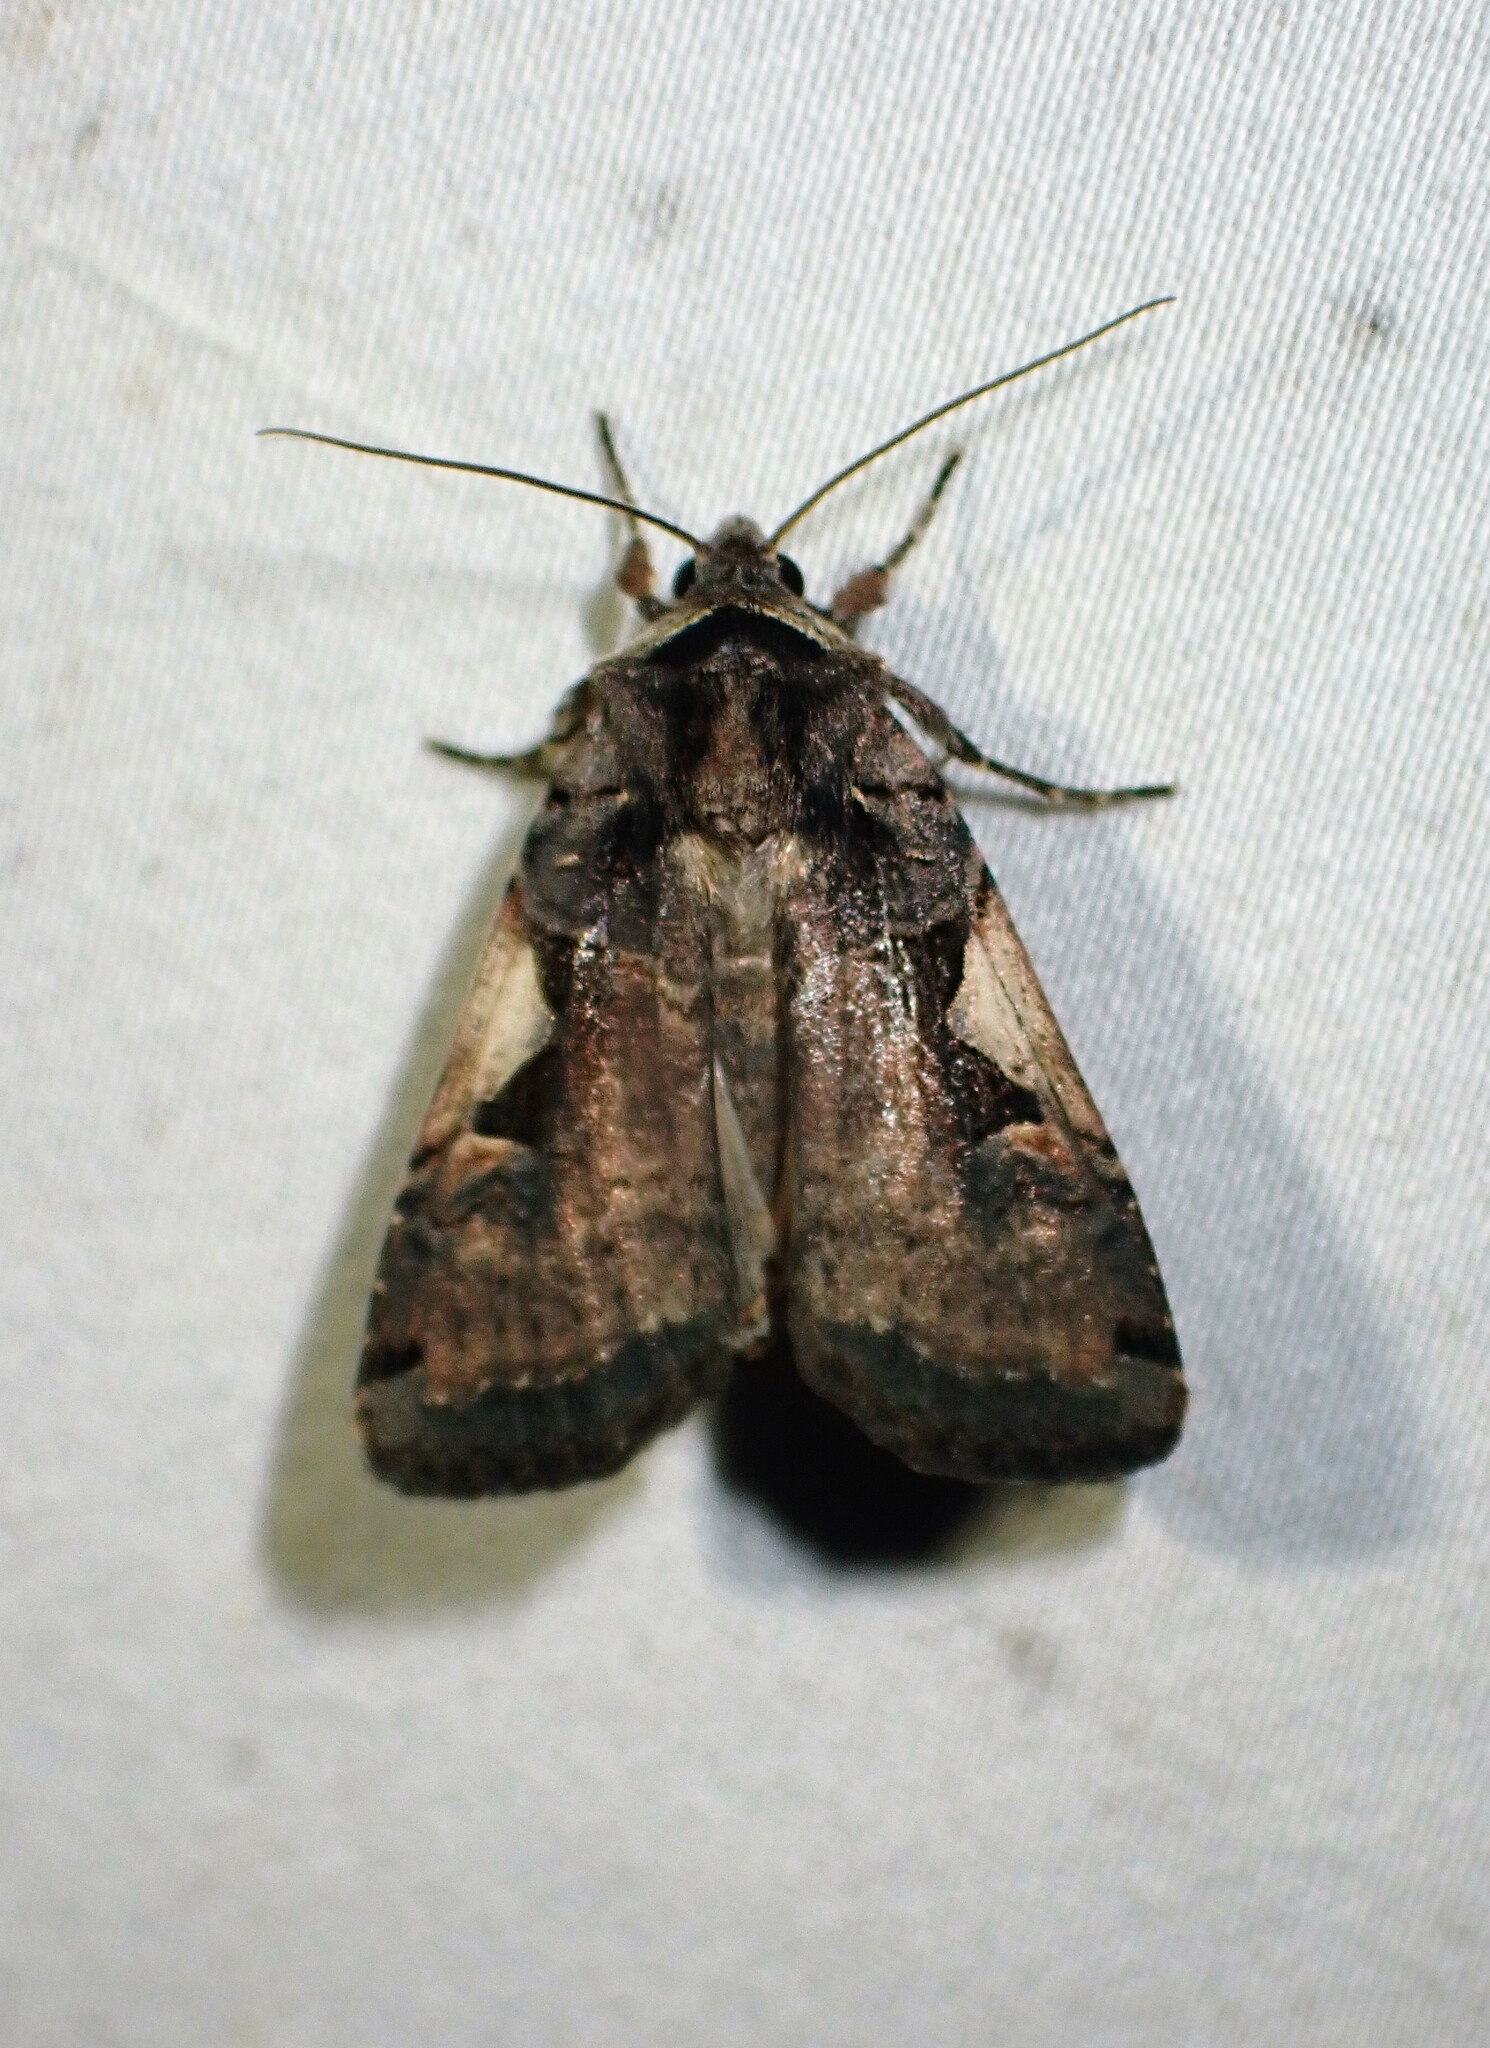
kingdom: Animalia
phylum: Arthropoda
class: Insecta
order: Lepidoptera
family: Noctuidae
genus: Xestia
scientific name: Xestia
